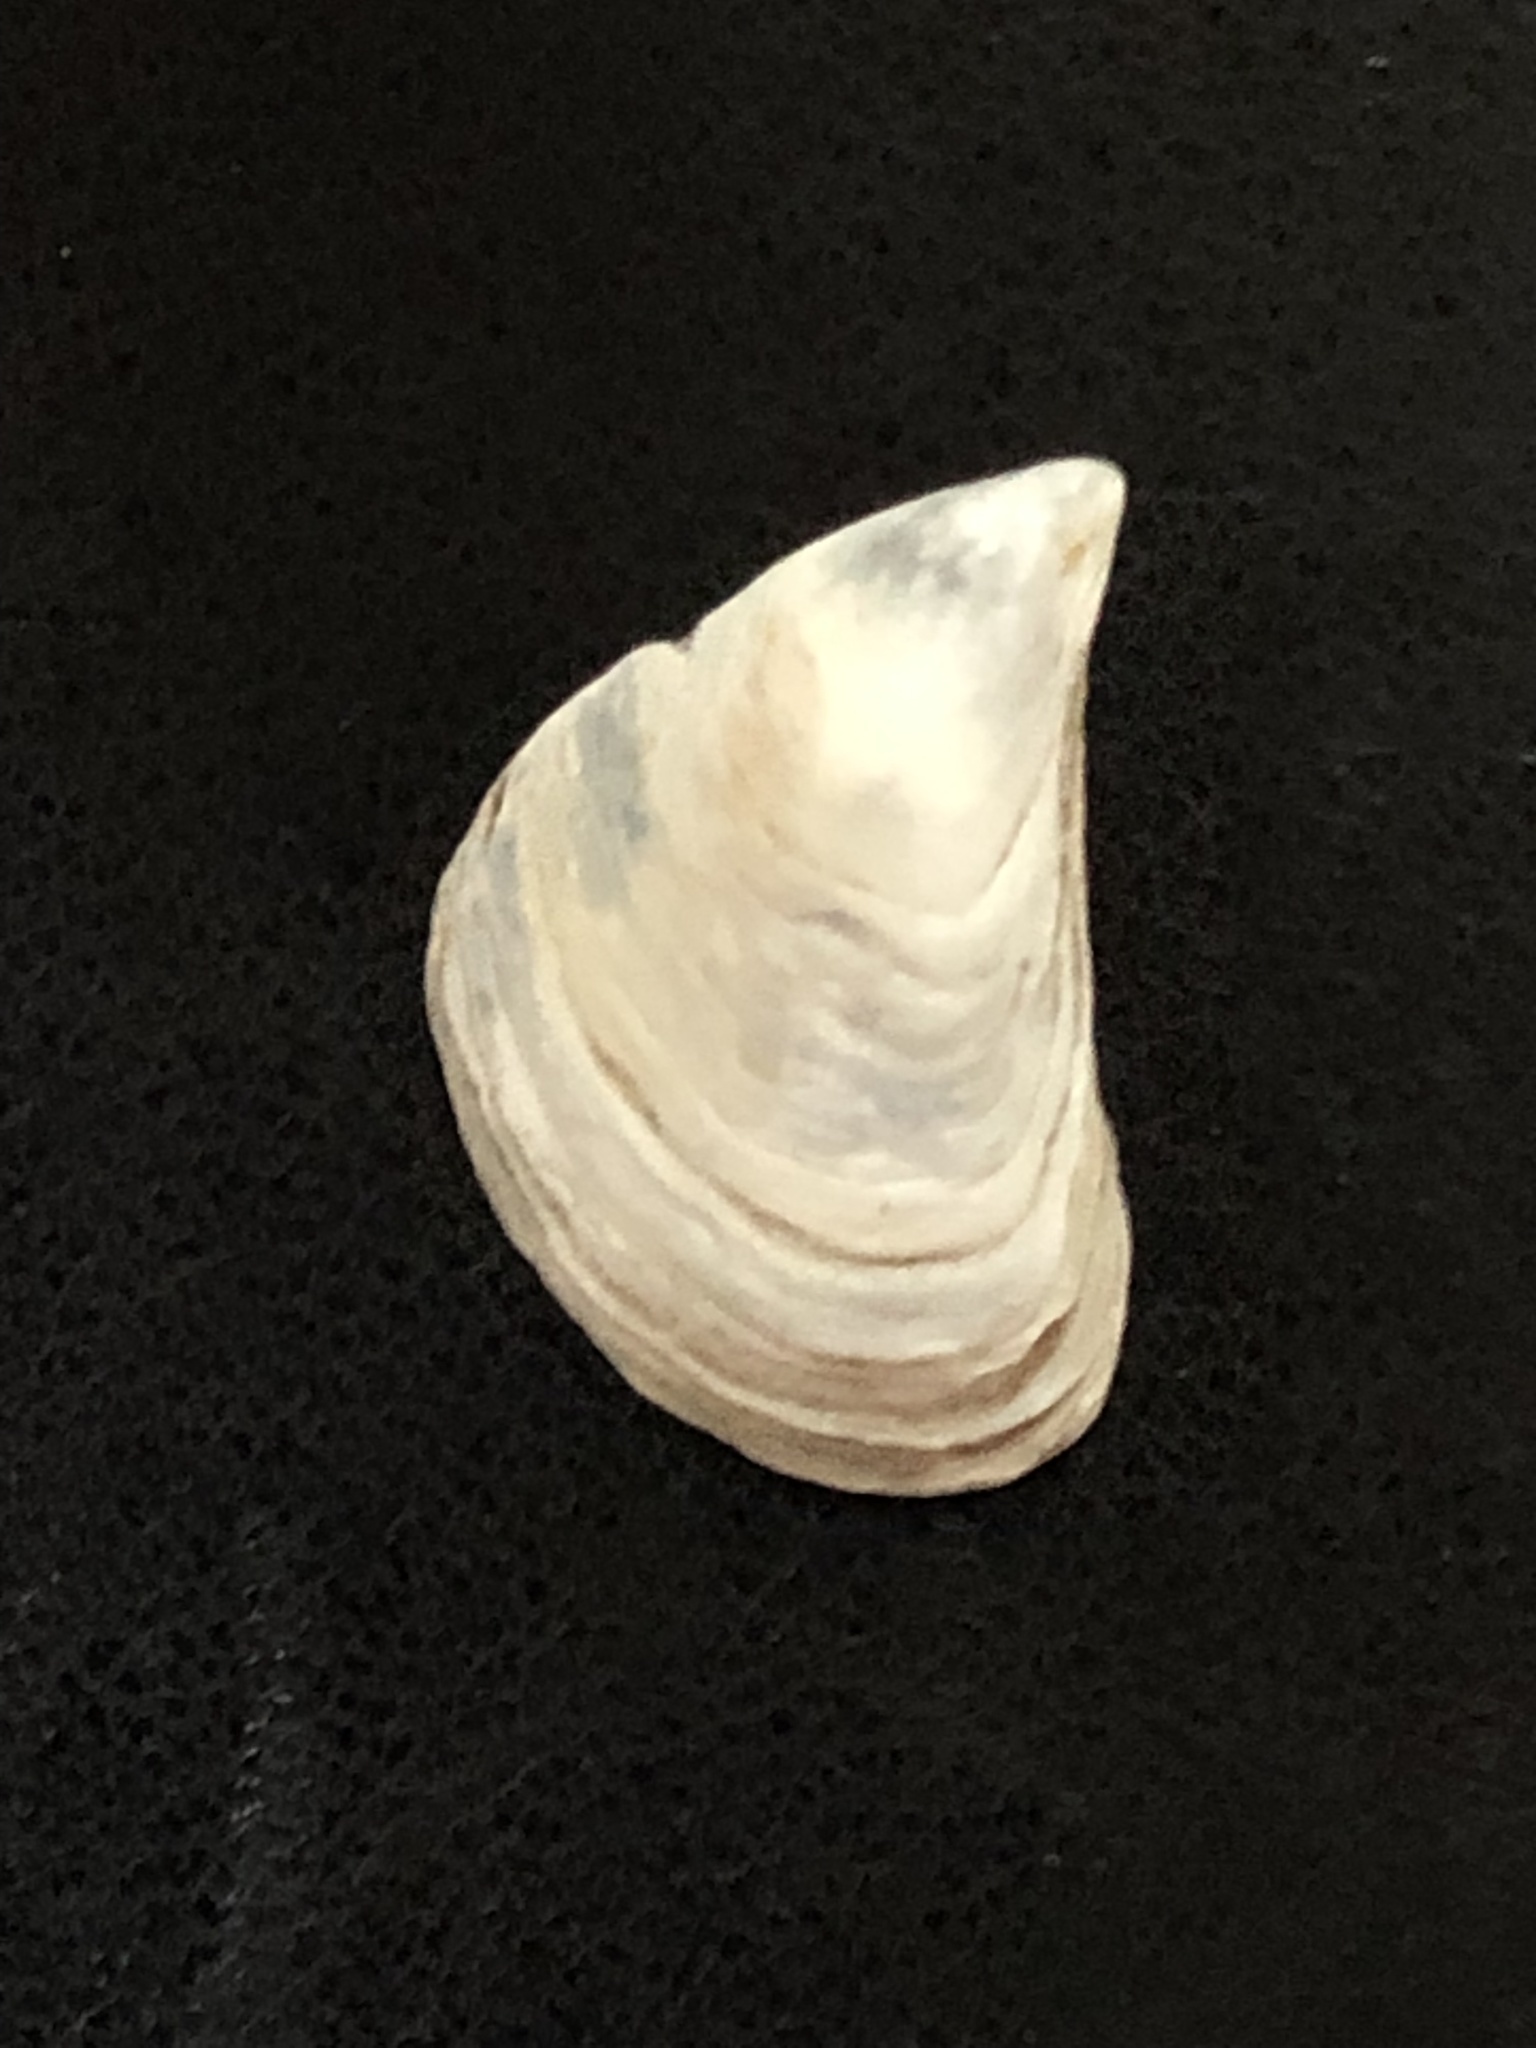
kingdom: Animalia
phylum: Mollusca
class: Bivalvia
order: Myida
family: Dreissenidae
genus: Dreissena
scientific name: Dreissena bugensis
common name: Quagga mussel
